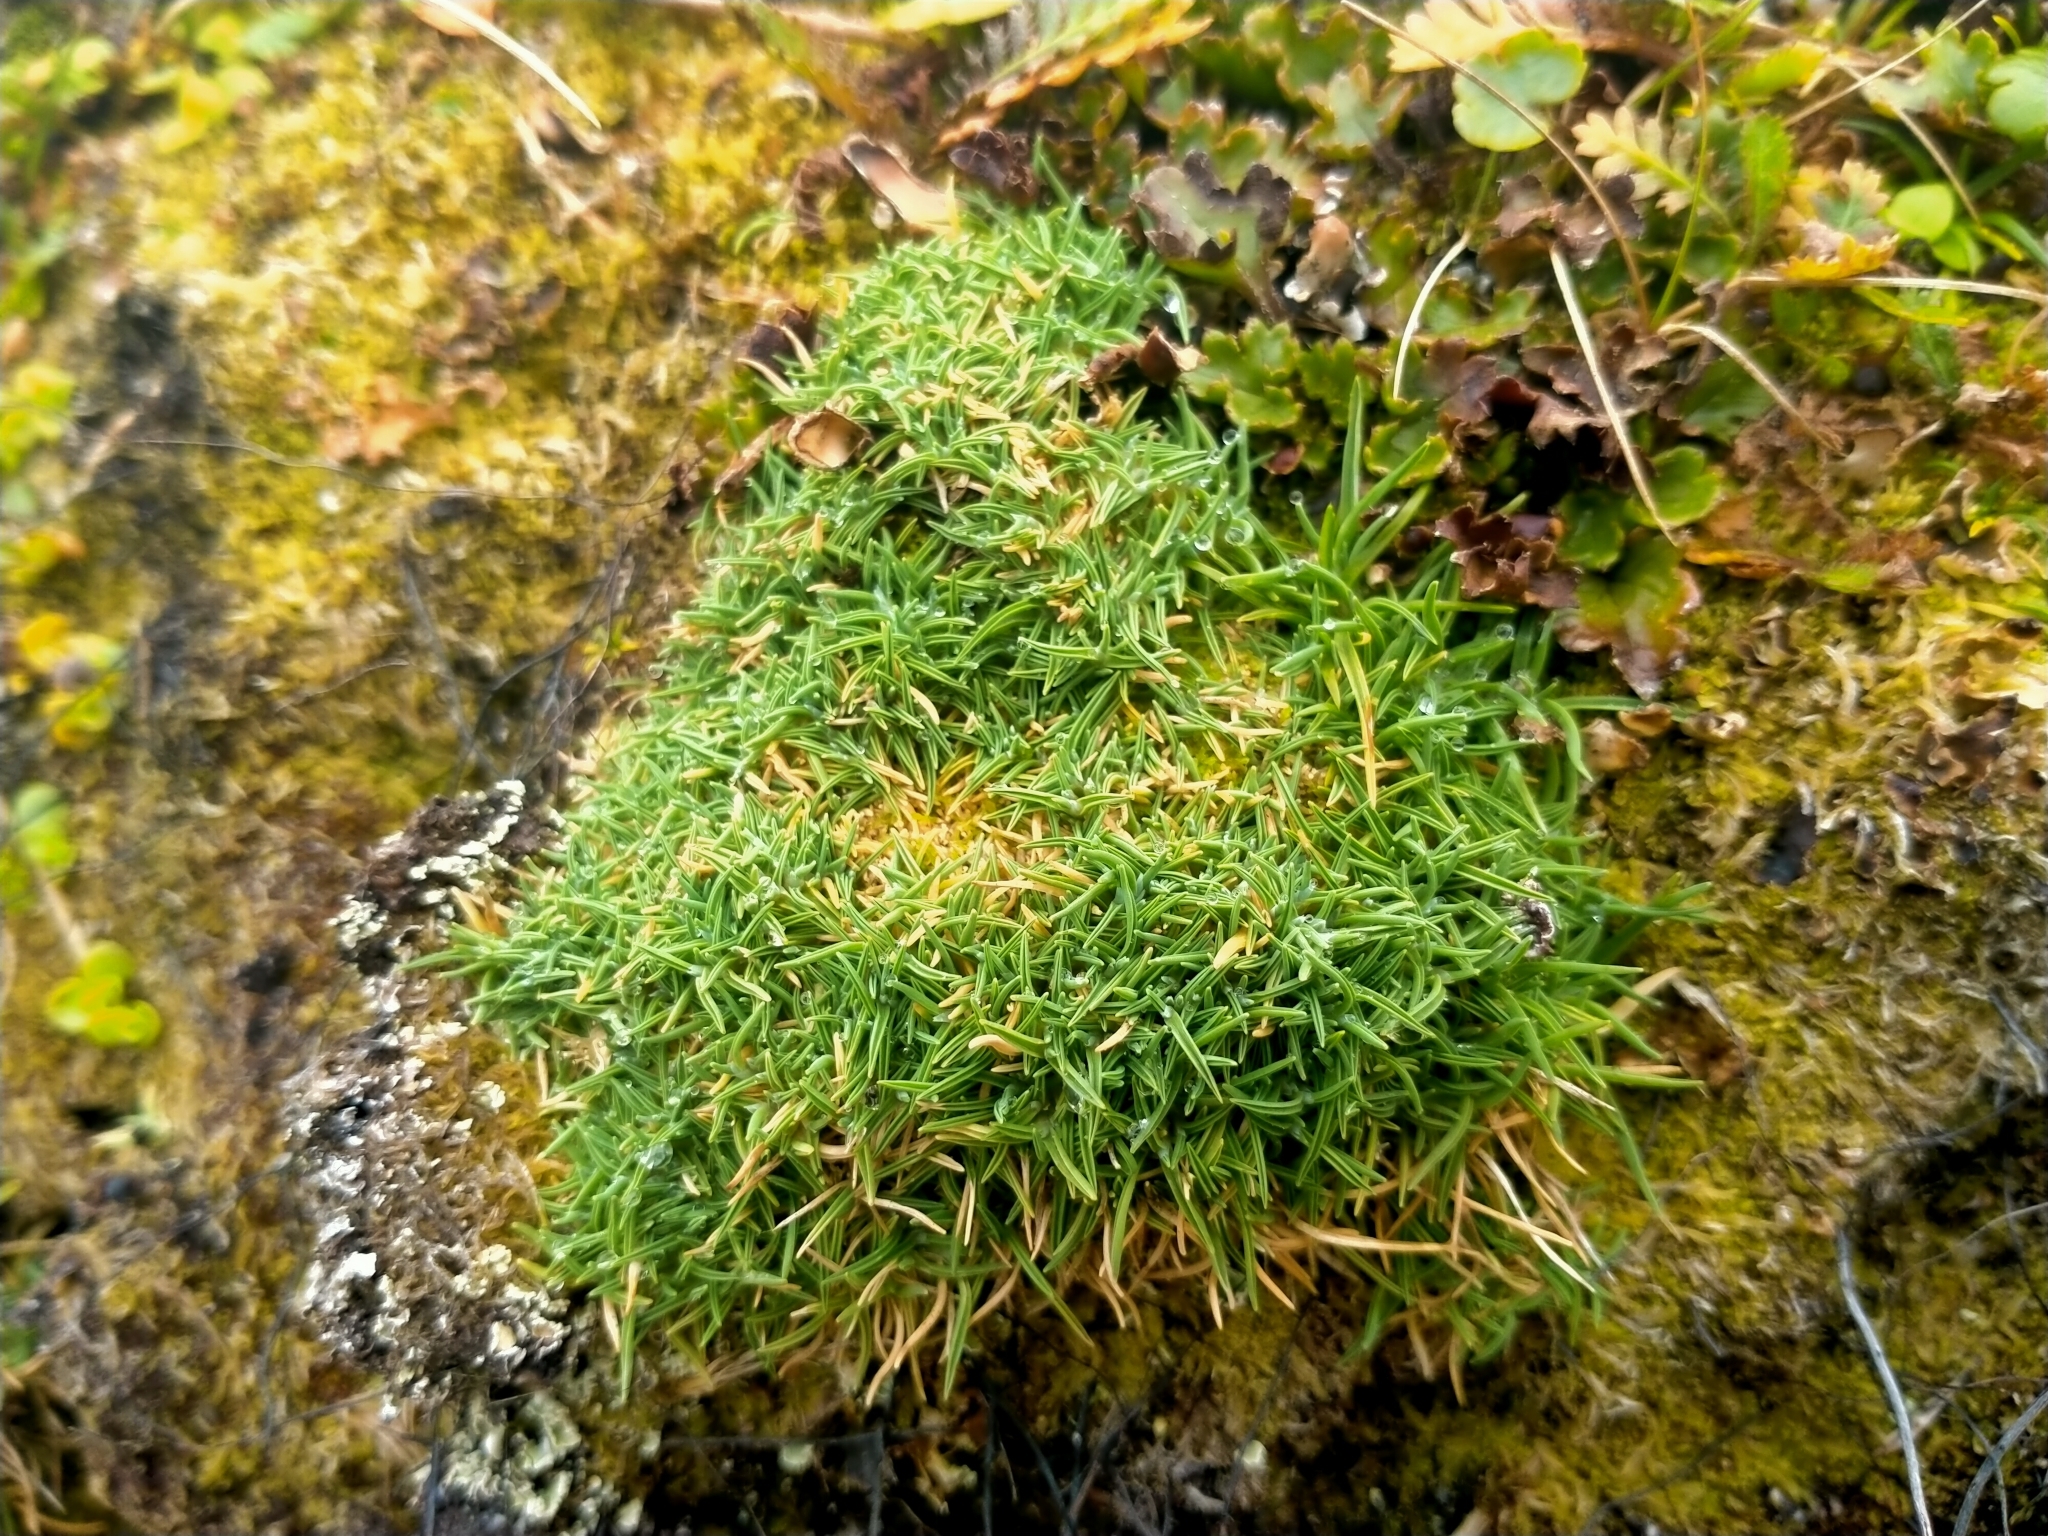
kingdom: Plantae
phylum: Tracheophyta
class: Liliopsida
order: Poales
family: Poaceae
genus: Agrostis
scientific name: Agrostis muscosa
